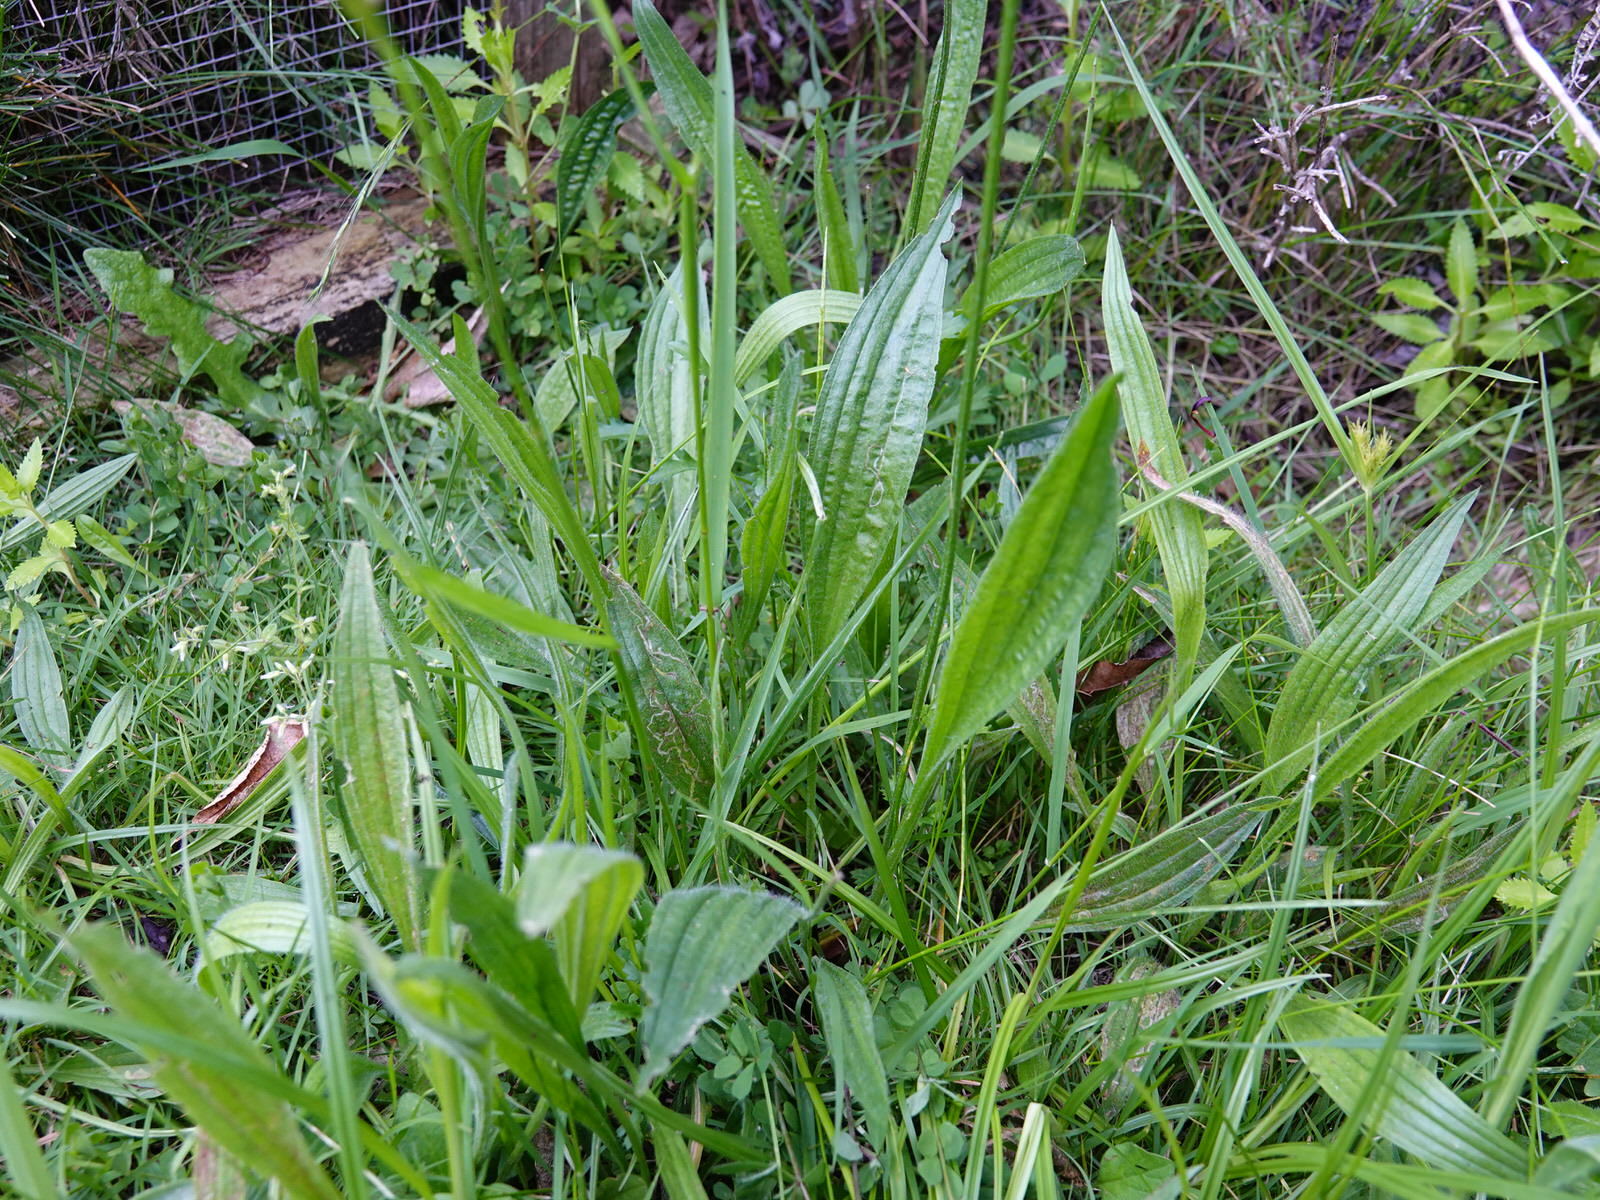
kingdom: Plantae
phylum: Tracheophyta
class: Magnoliopsida
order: Lamiales
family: Plantaginaceae
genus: Plantago
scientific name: Plantago lanceolata
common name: Ribwort plantain
